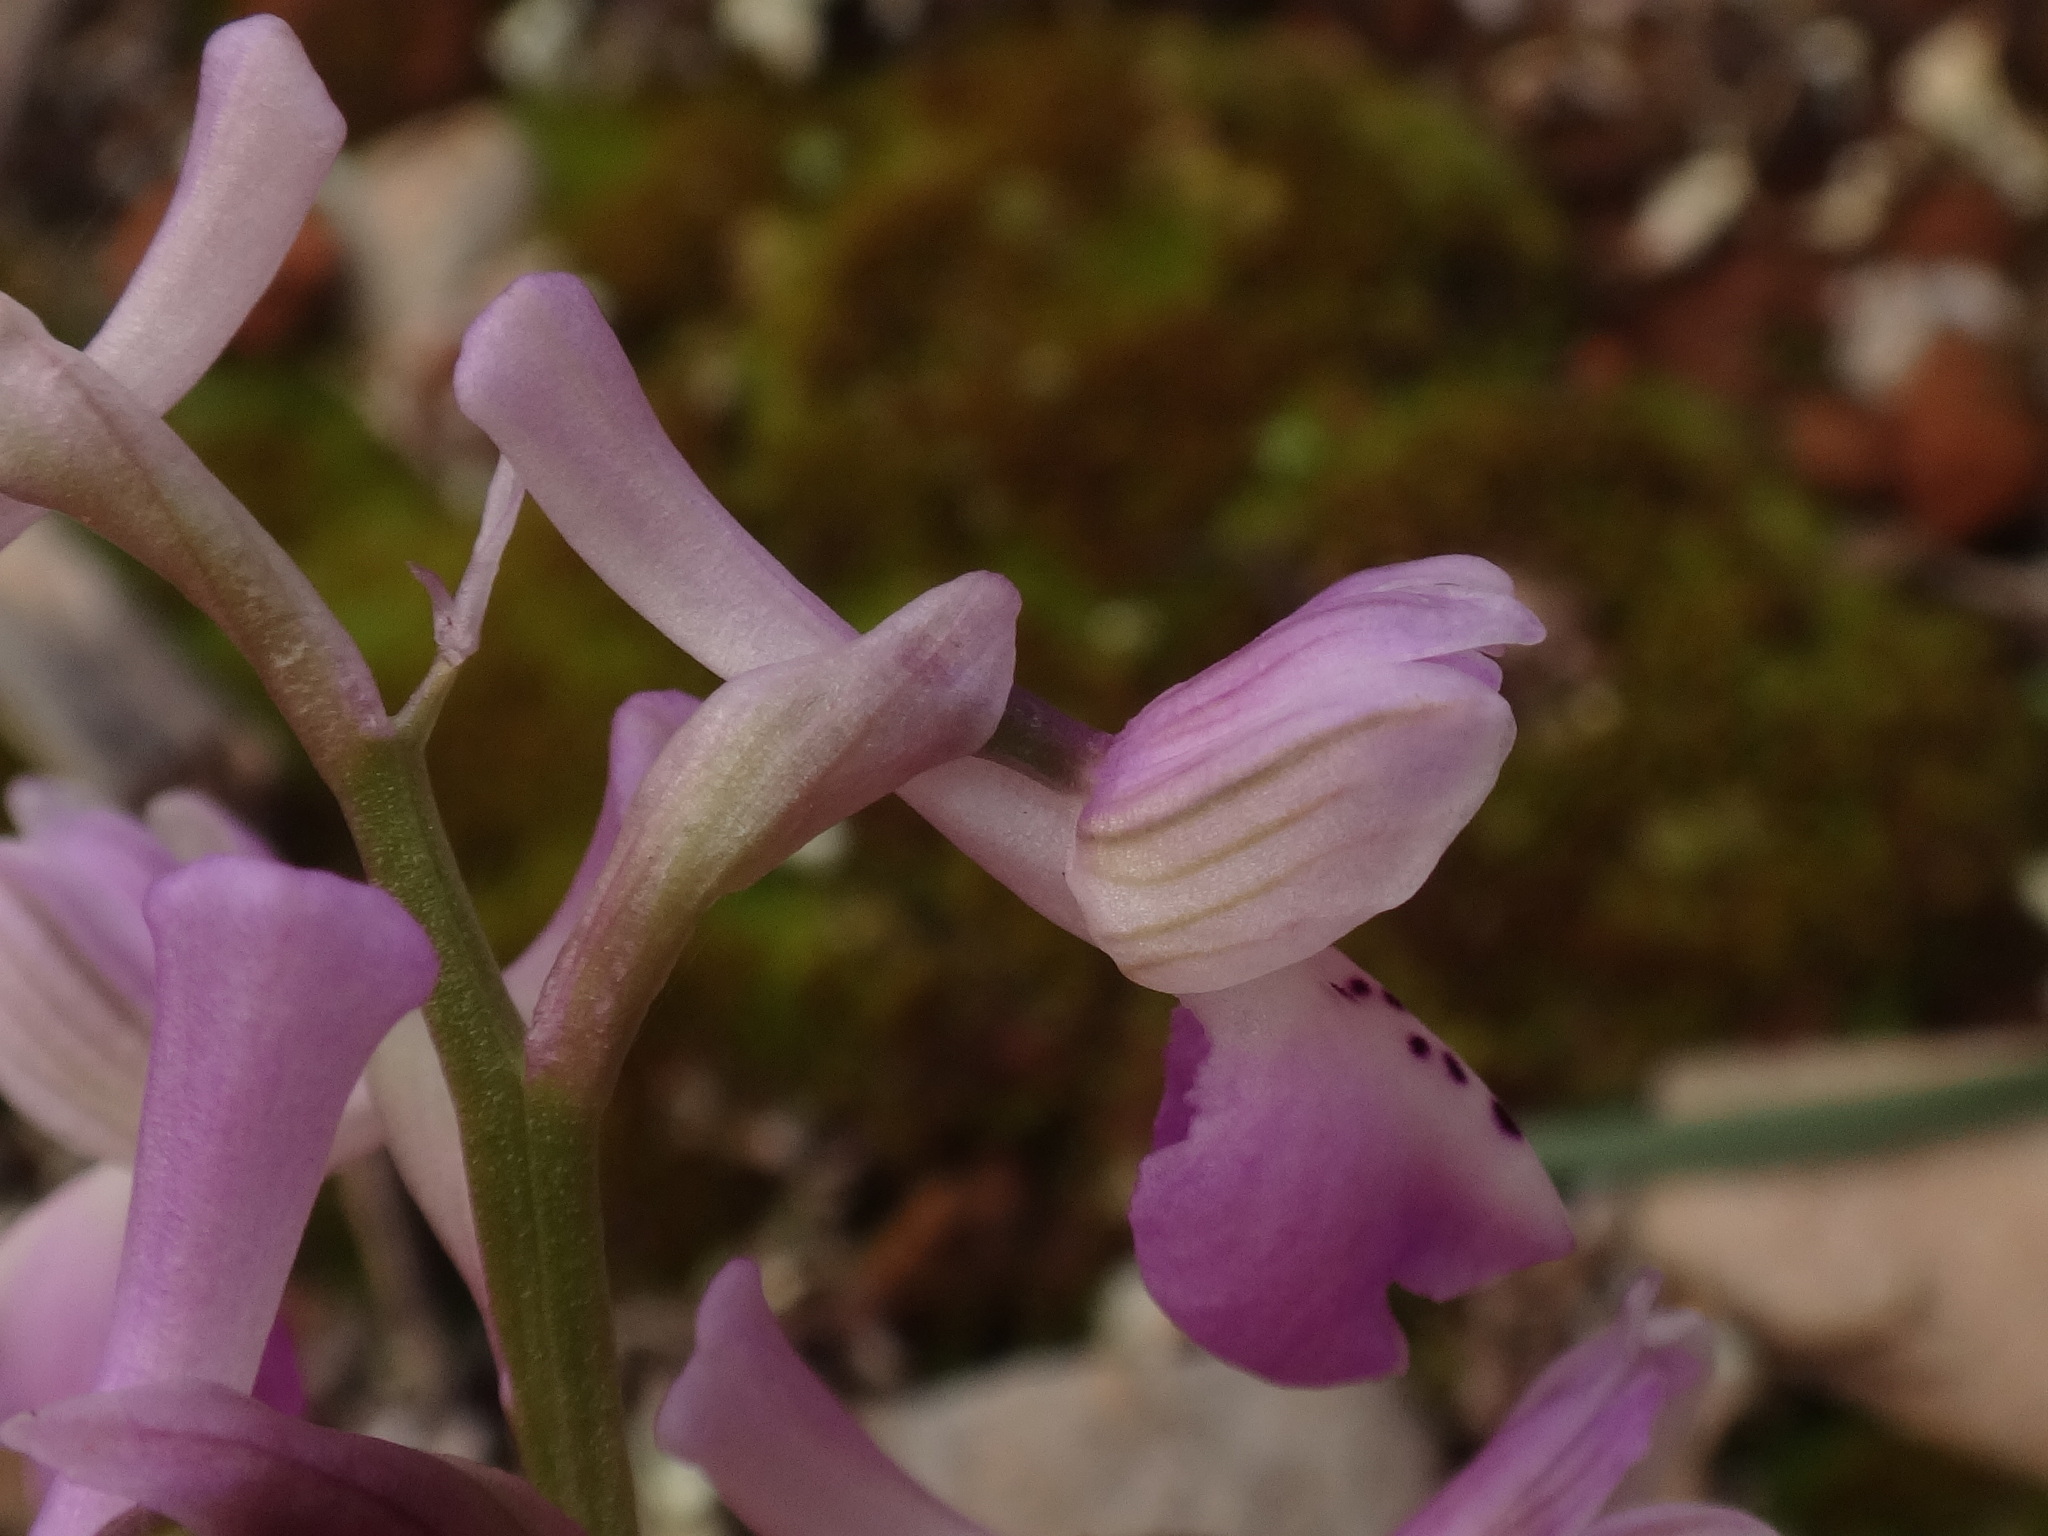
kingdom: Plantae
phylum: Tracheophyta
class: Liliopsida
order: Asparagales
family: Orchidaceae
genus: Anacamptis
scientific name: Anacamptis morio
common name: Green-winged orchid
